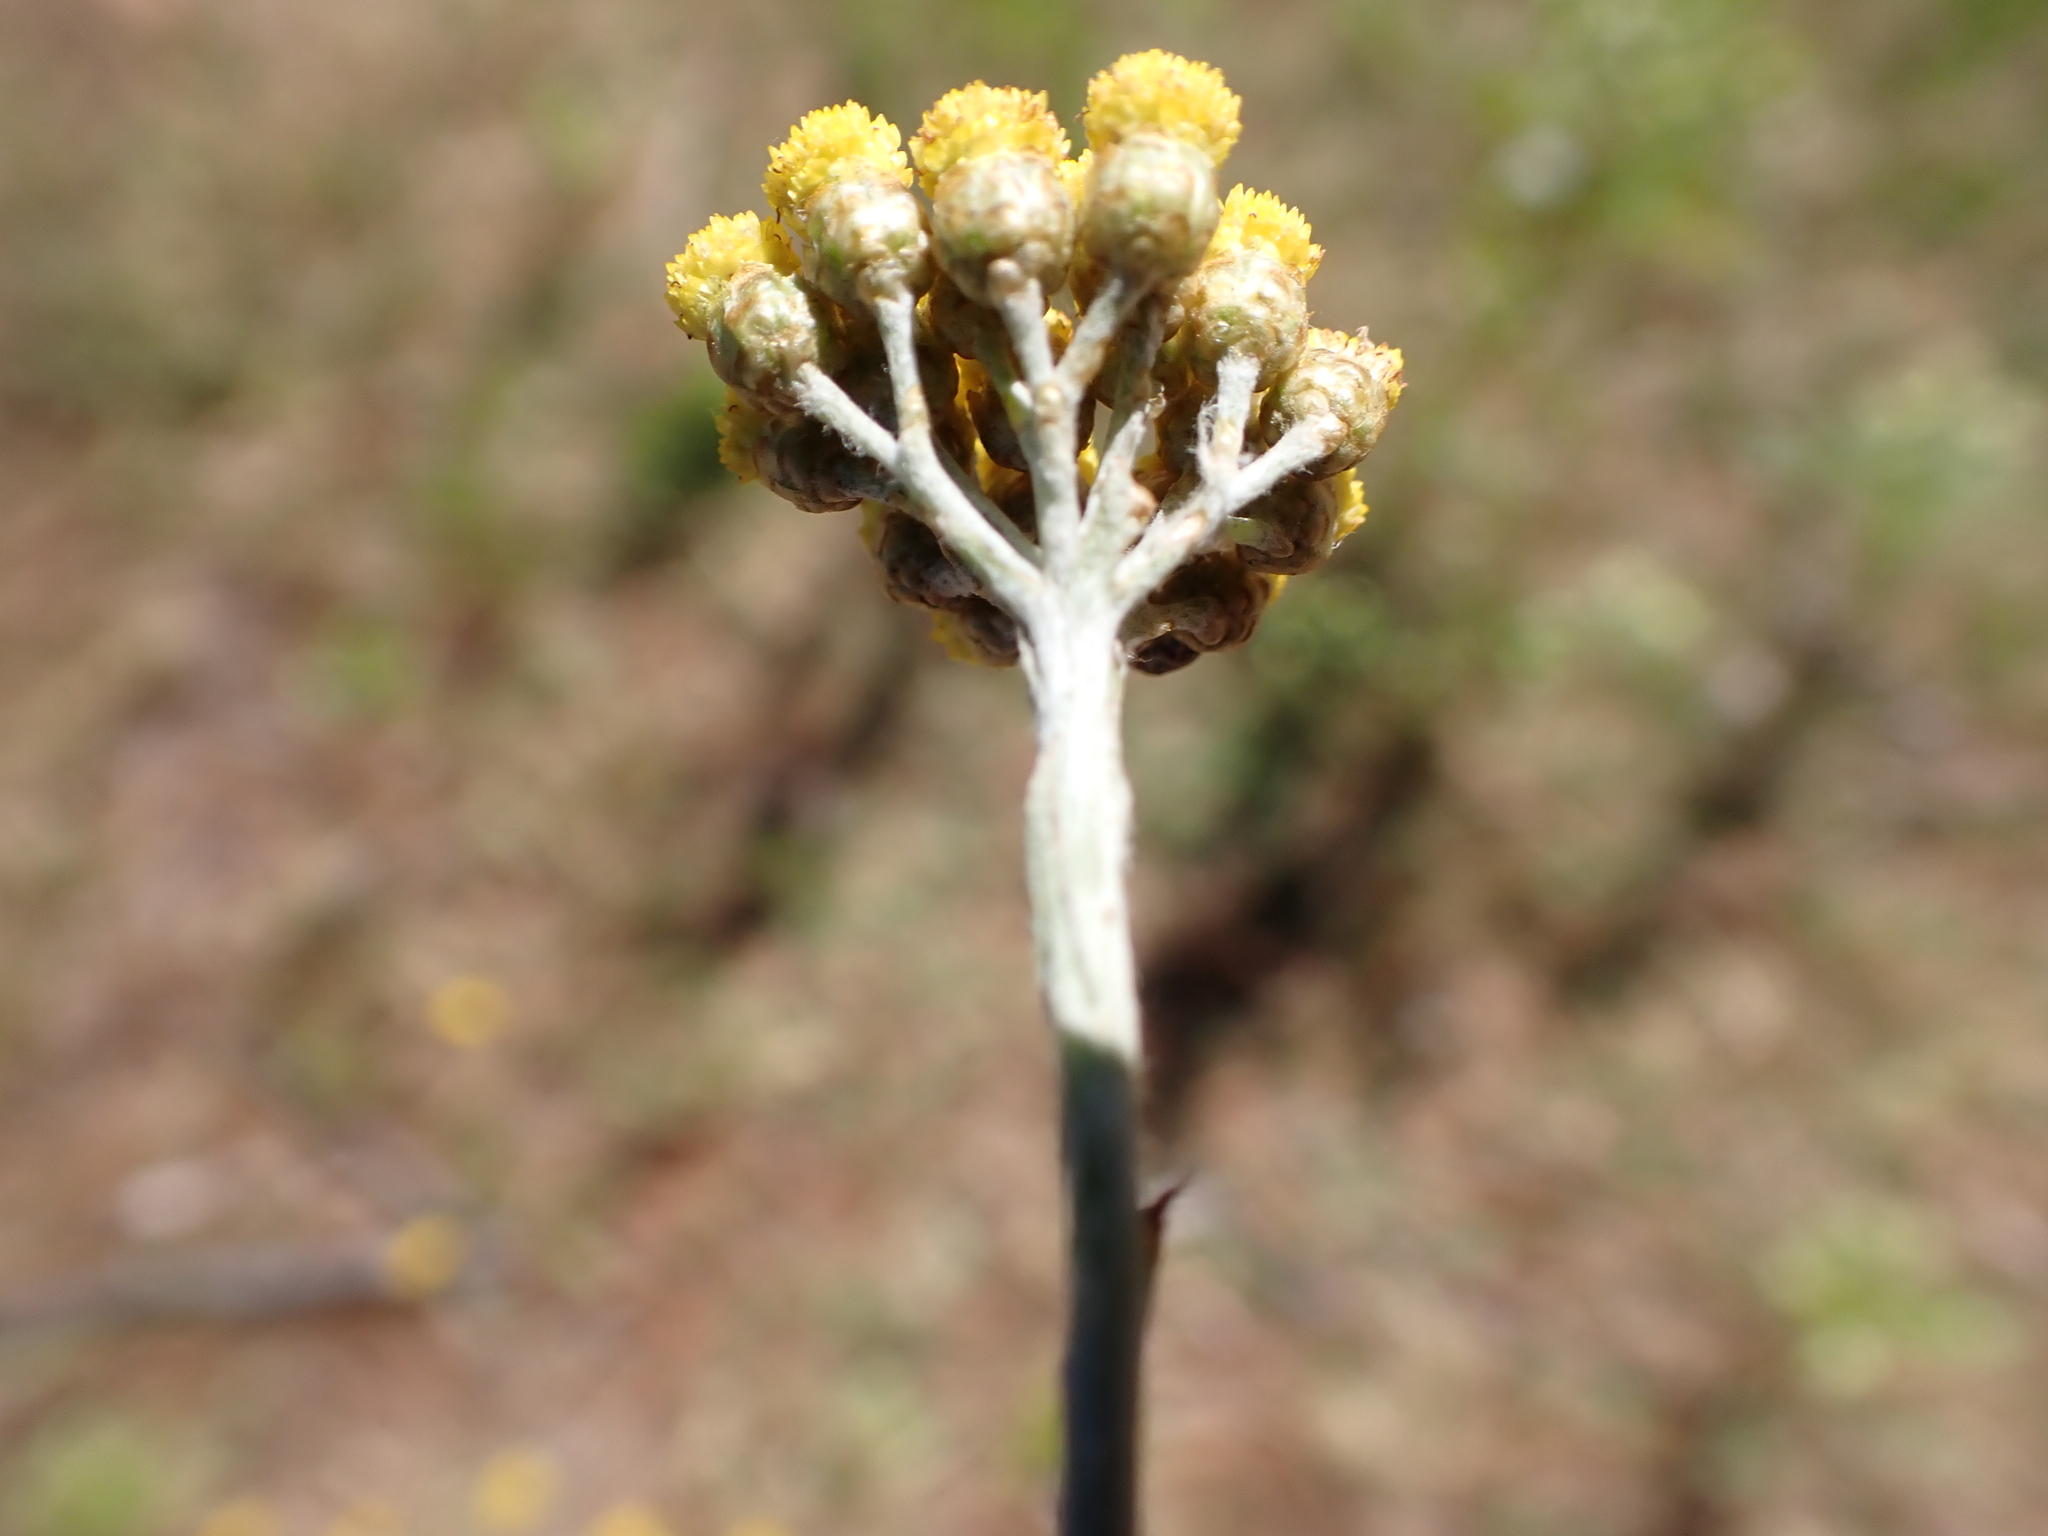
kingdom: Plantae
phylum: Tracheophyta
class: Magnoliopsida
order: Asterales
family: Asteraceae
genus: Athanasia
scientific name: Athanasia trifurcata
